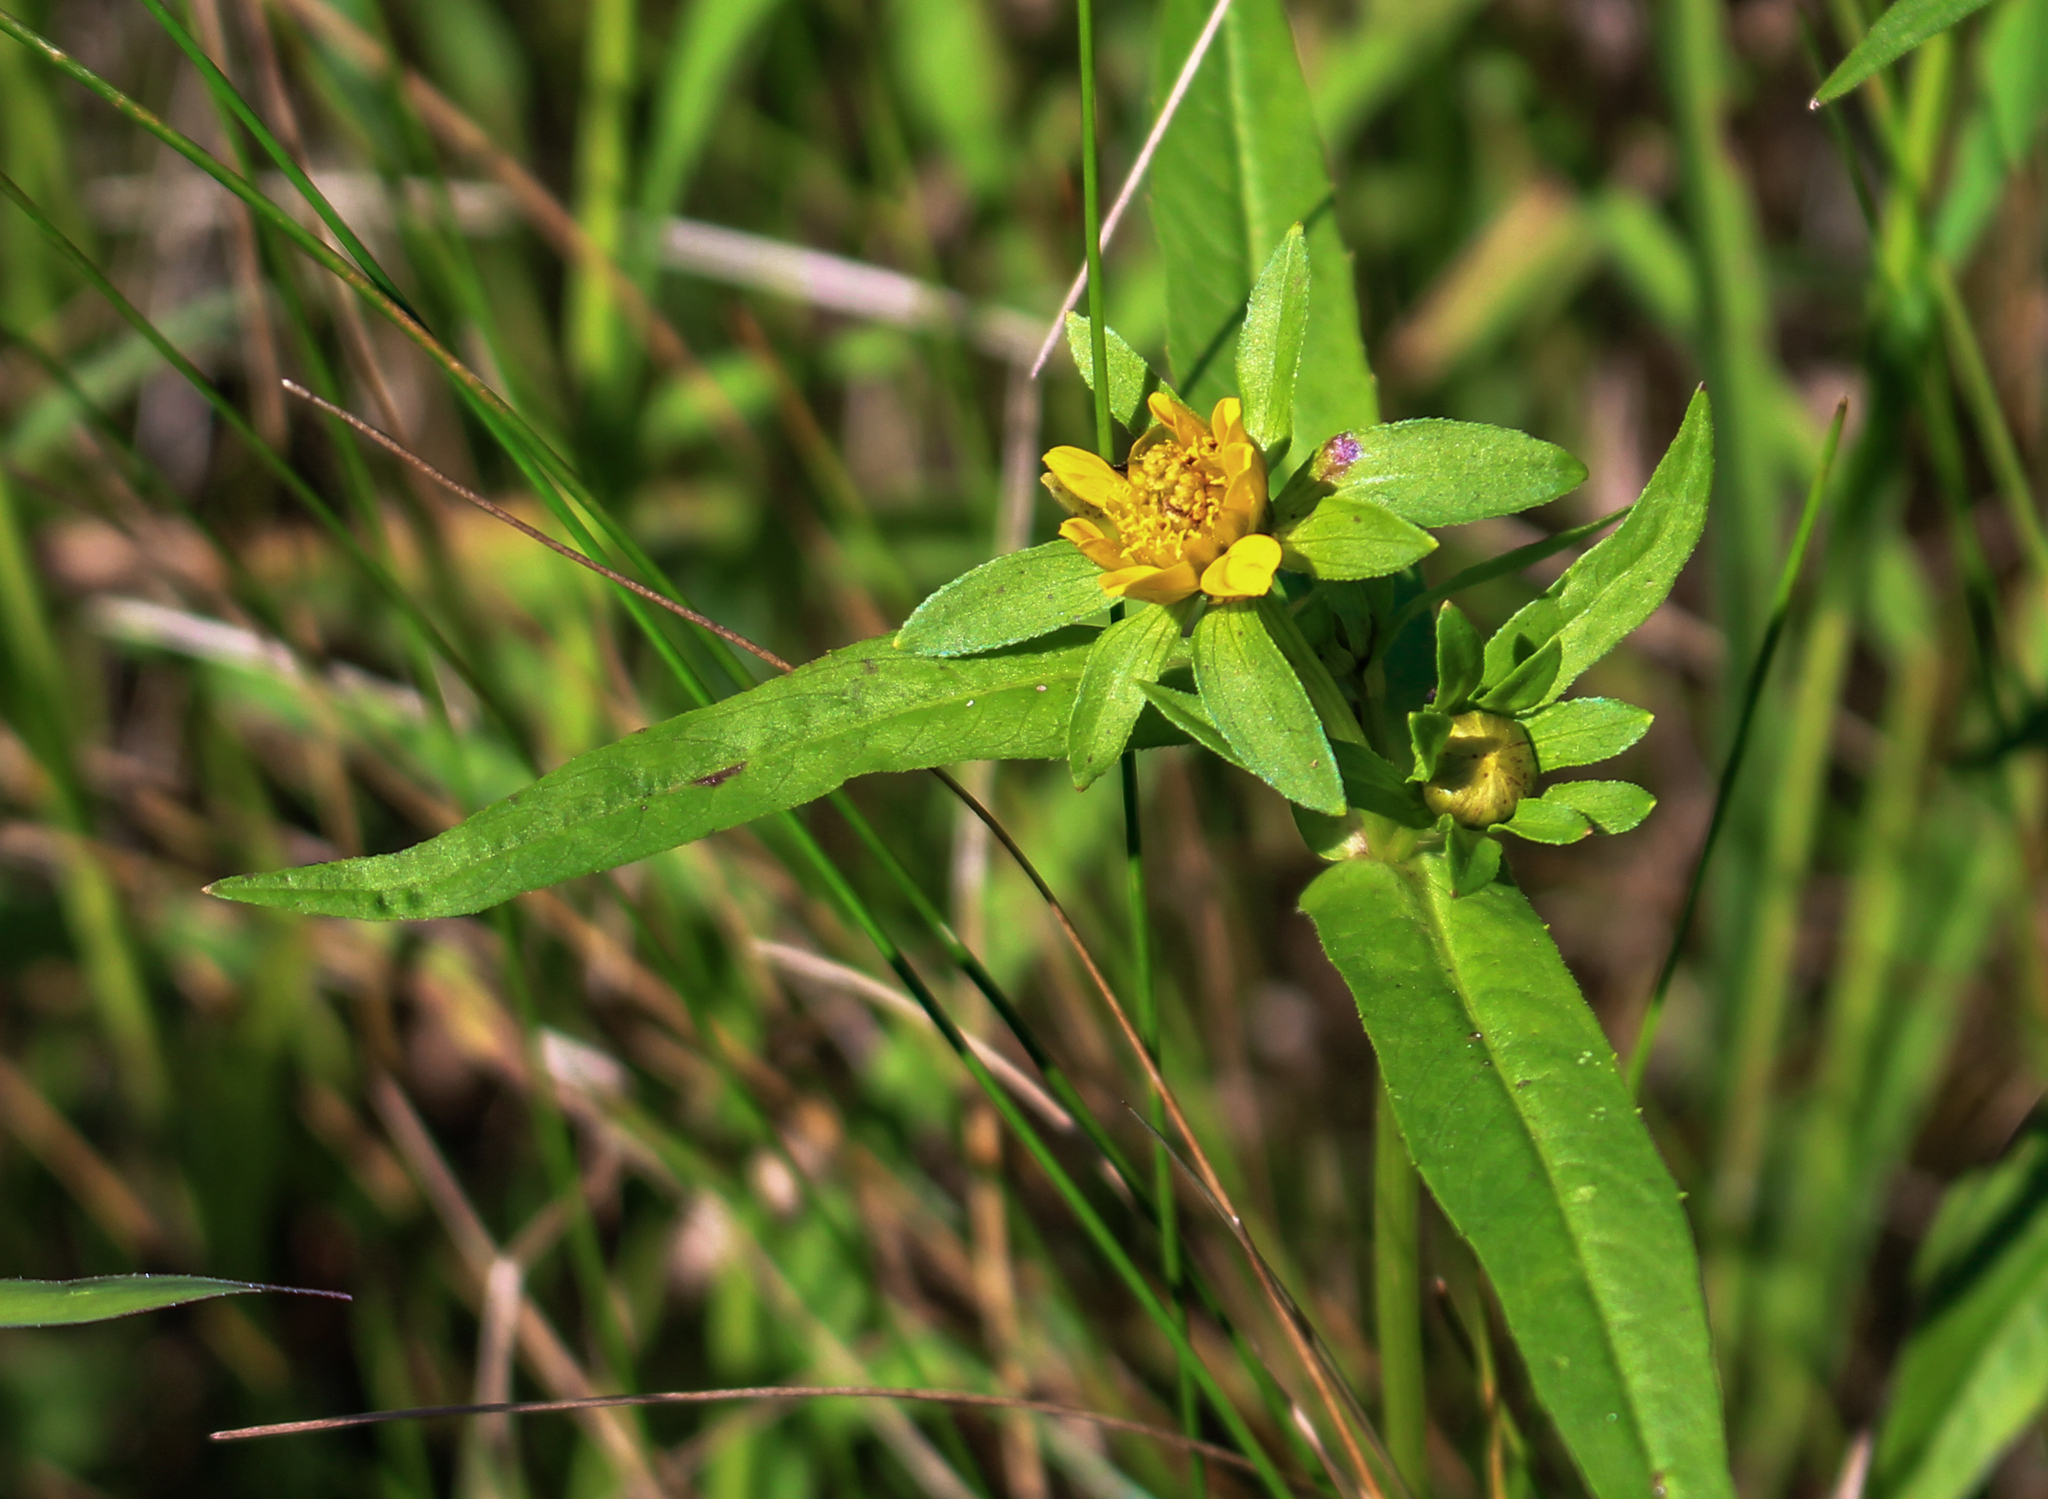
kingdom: Plantae
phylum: Tracheophyta
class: Magnoliopsida
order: Asterales
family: Asteraceae
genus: Bidens
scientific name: Bidens cernua
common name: Nodding bur-marigold
